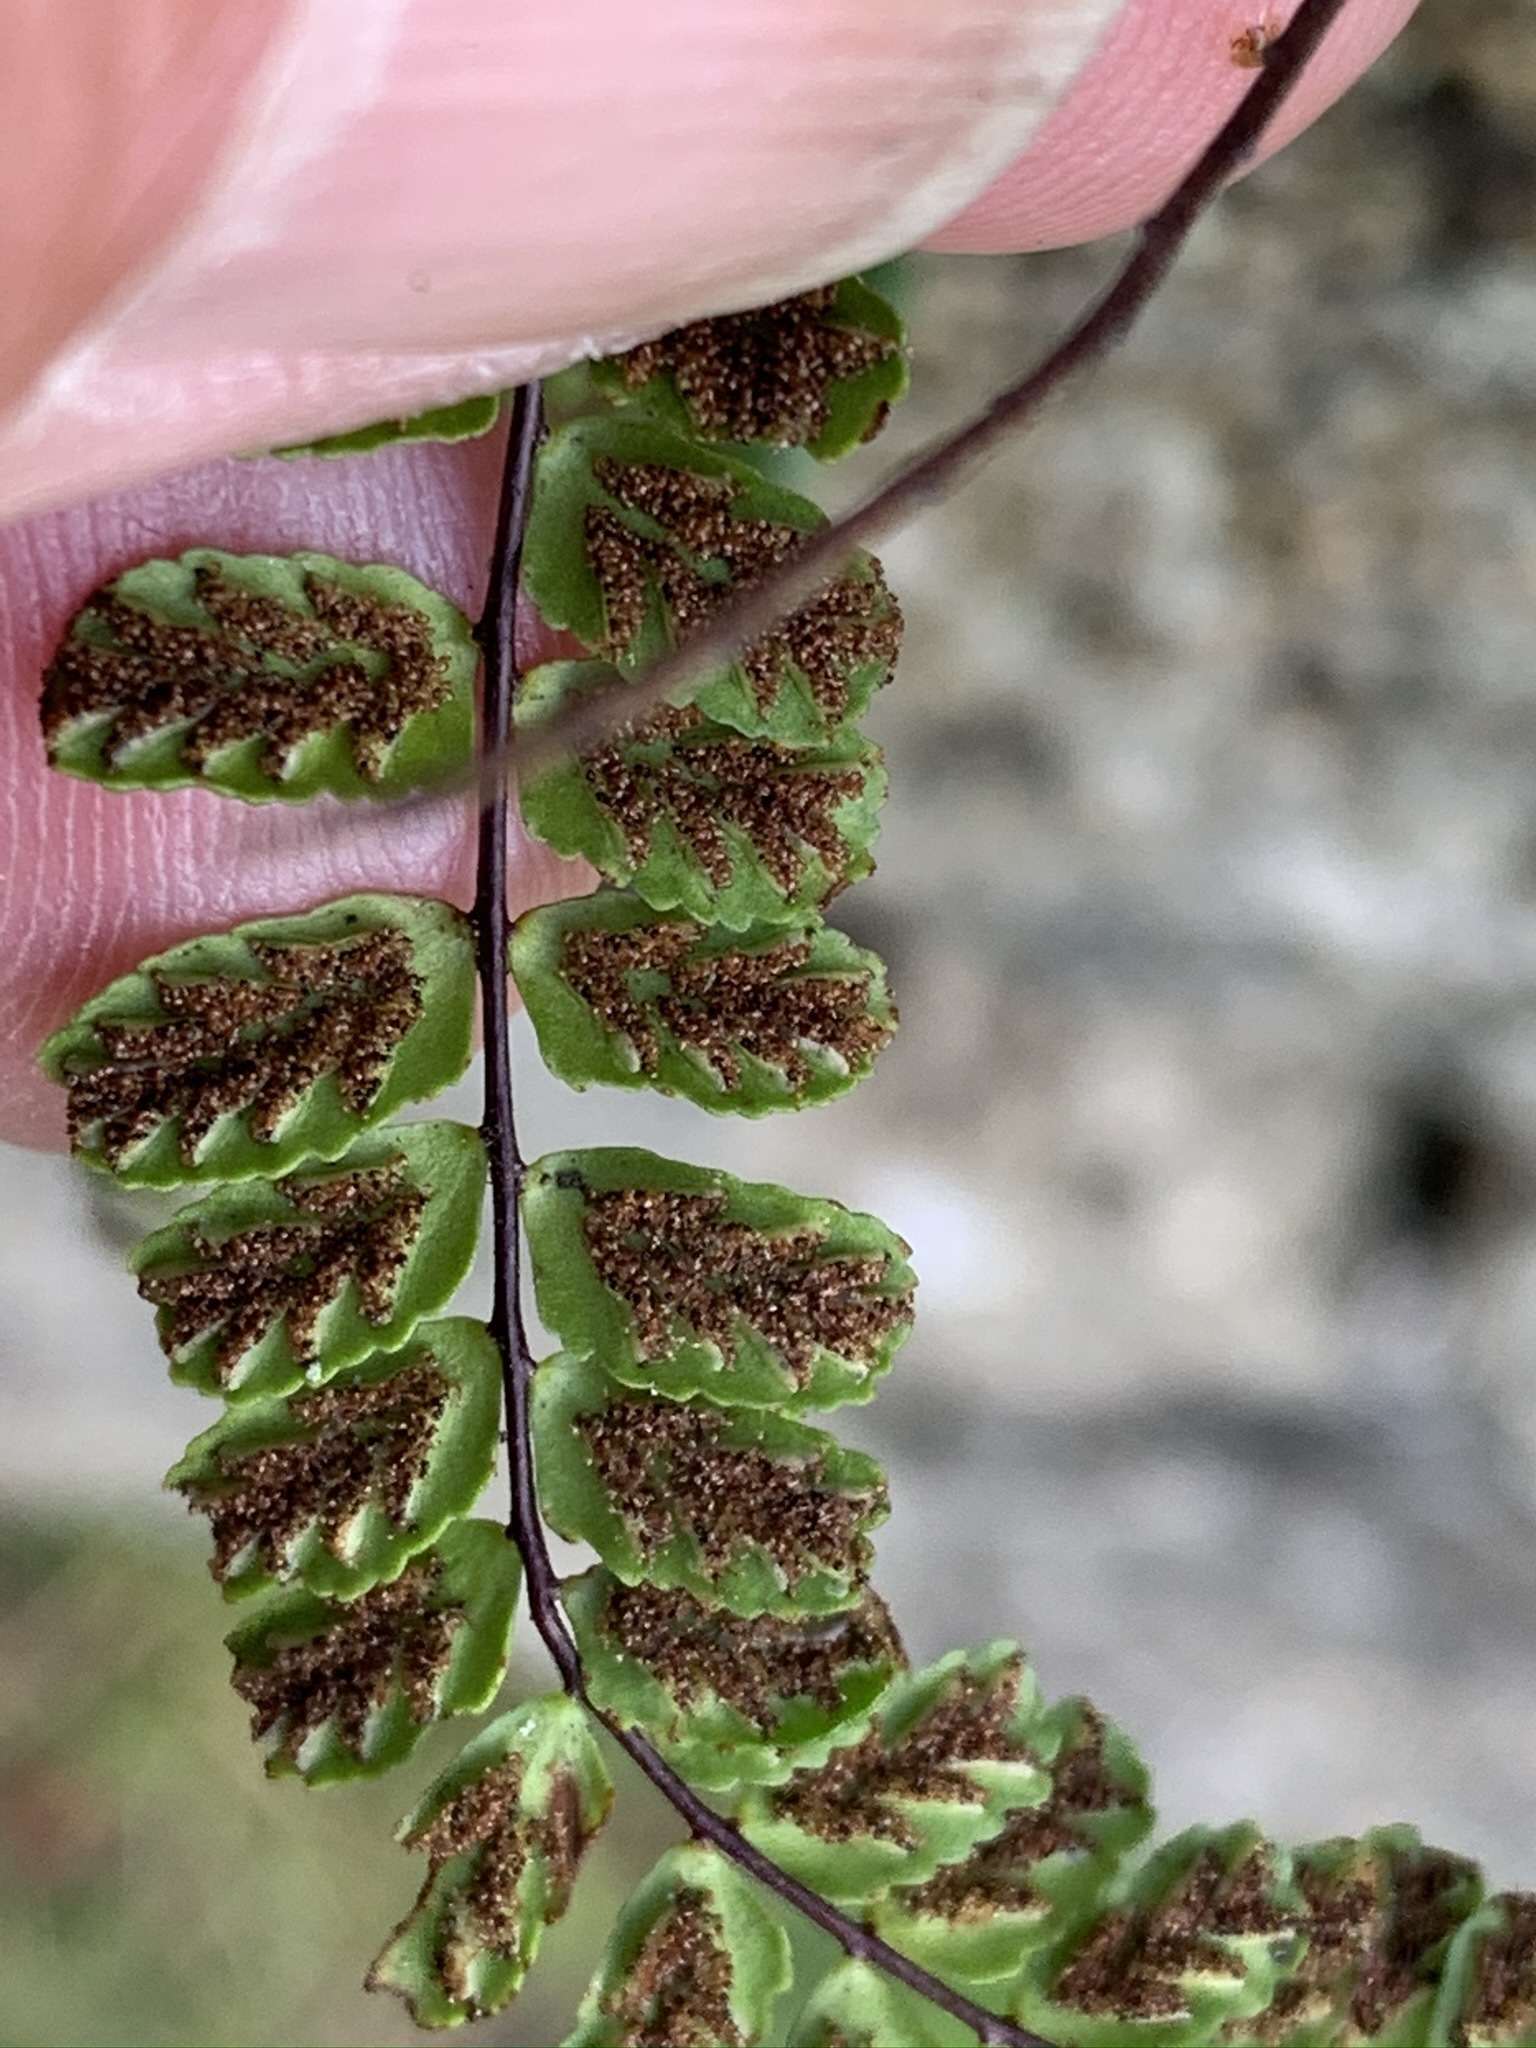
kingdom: Plantae
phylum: Tracheophyta
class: Polypodiopsida
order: Polypodiales
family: Aspleniaceae
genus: Asplenium
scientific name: Asplenium trichomanes
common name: Maidenhair spleenwort
